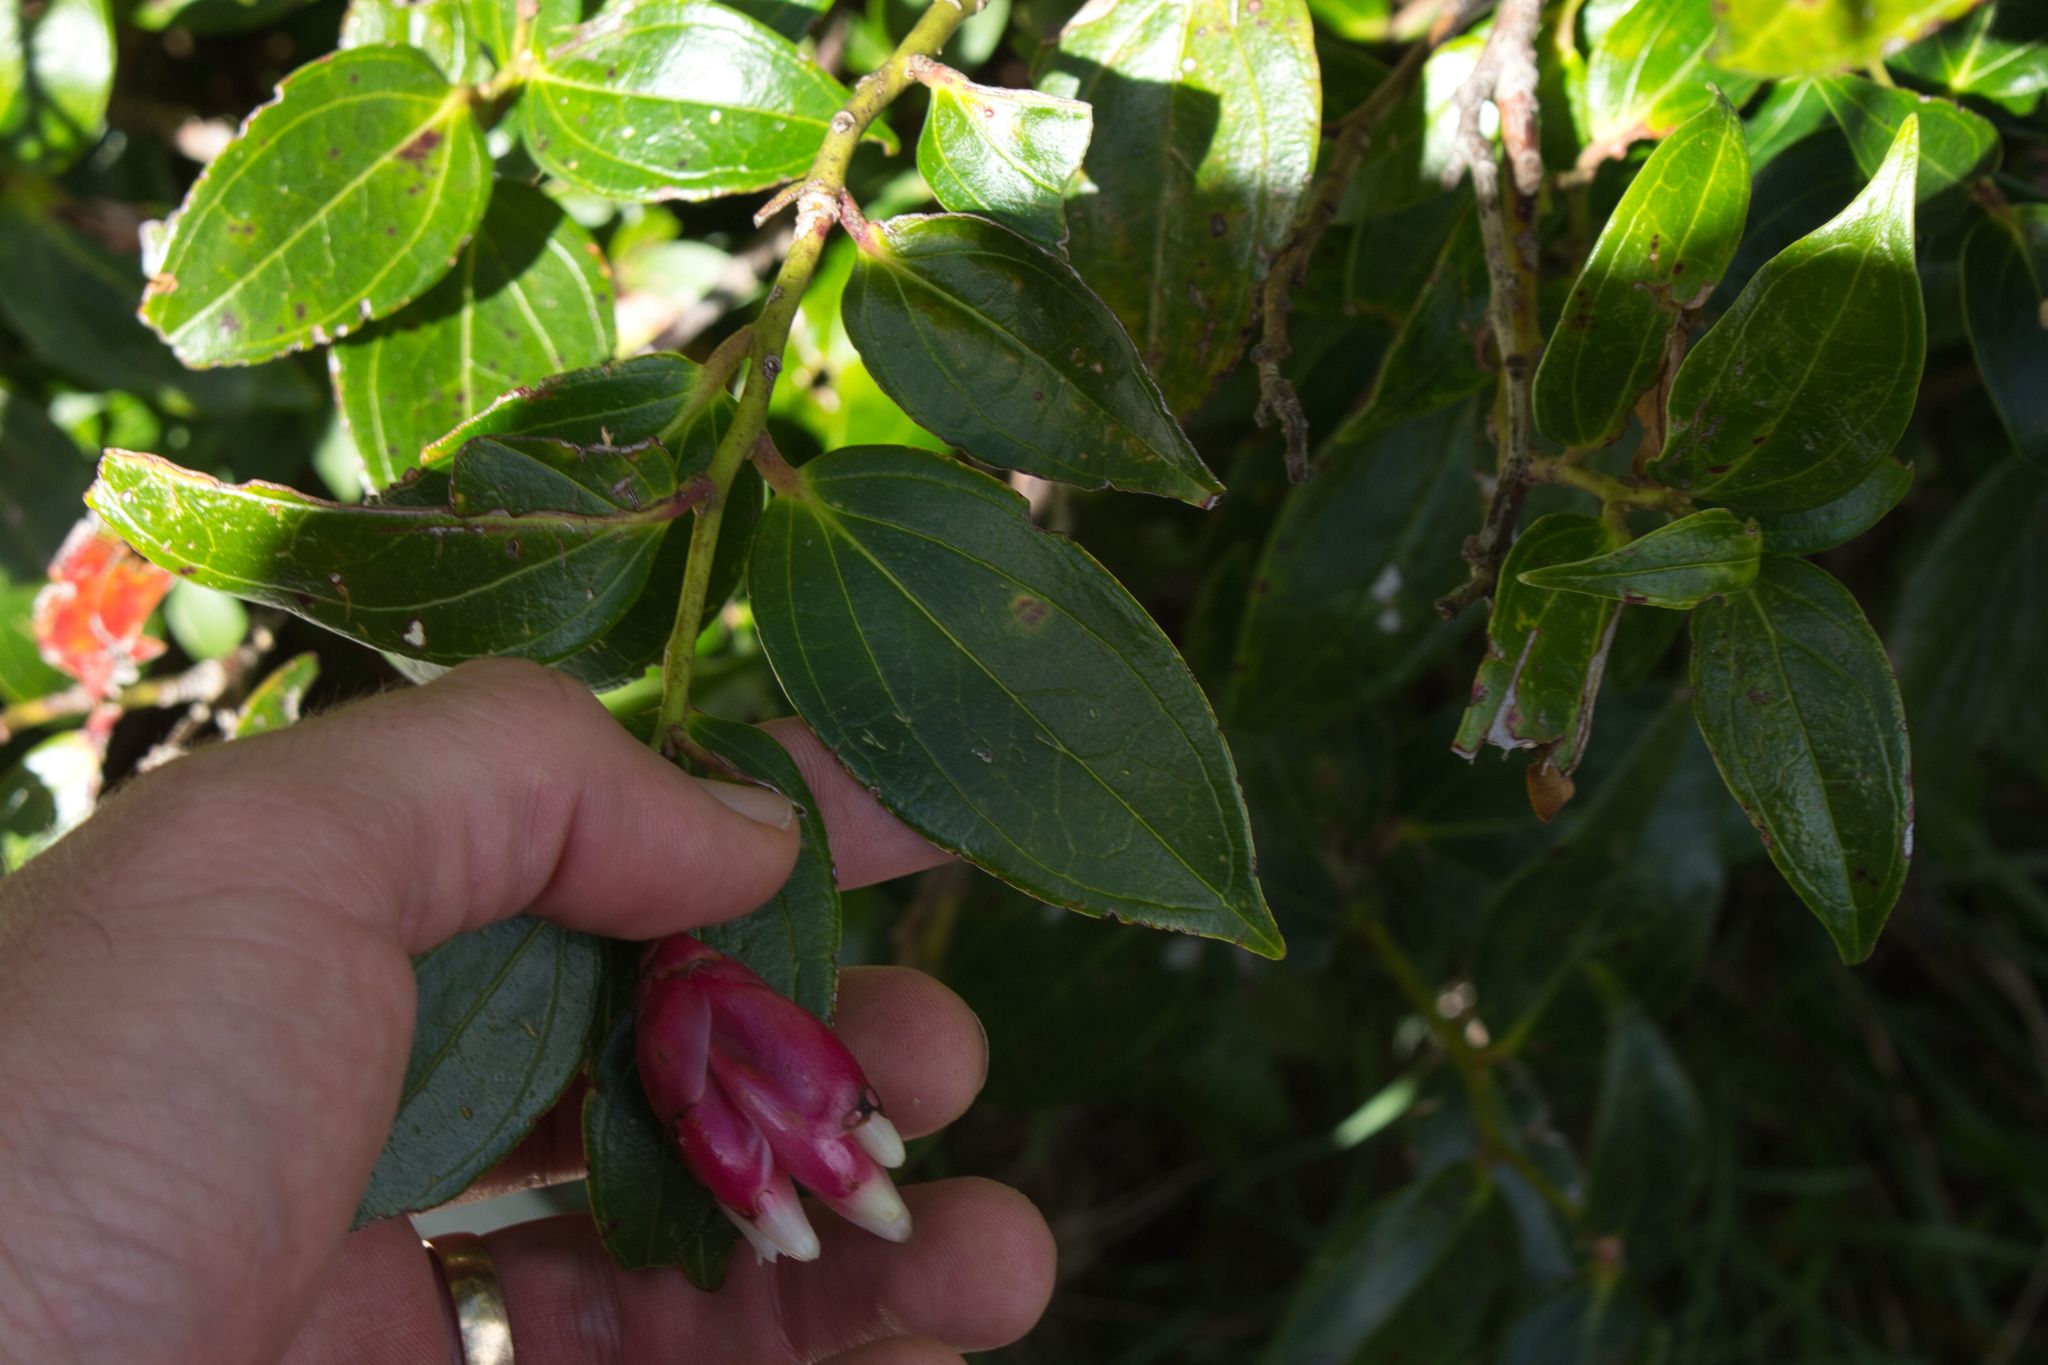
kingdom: Plantae
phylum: Tracheophyta
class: Magnoliopsida
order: Ericales
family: Ericaceae
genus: Cavendishia
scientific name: Cavendishia bracteata
